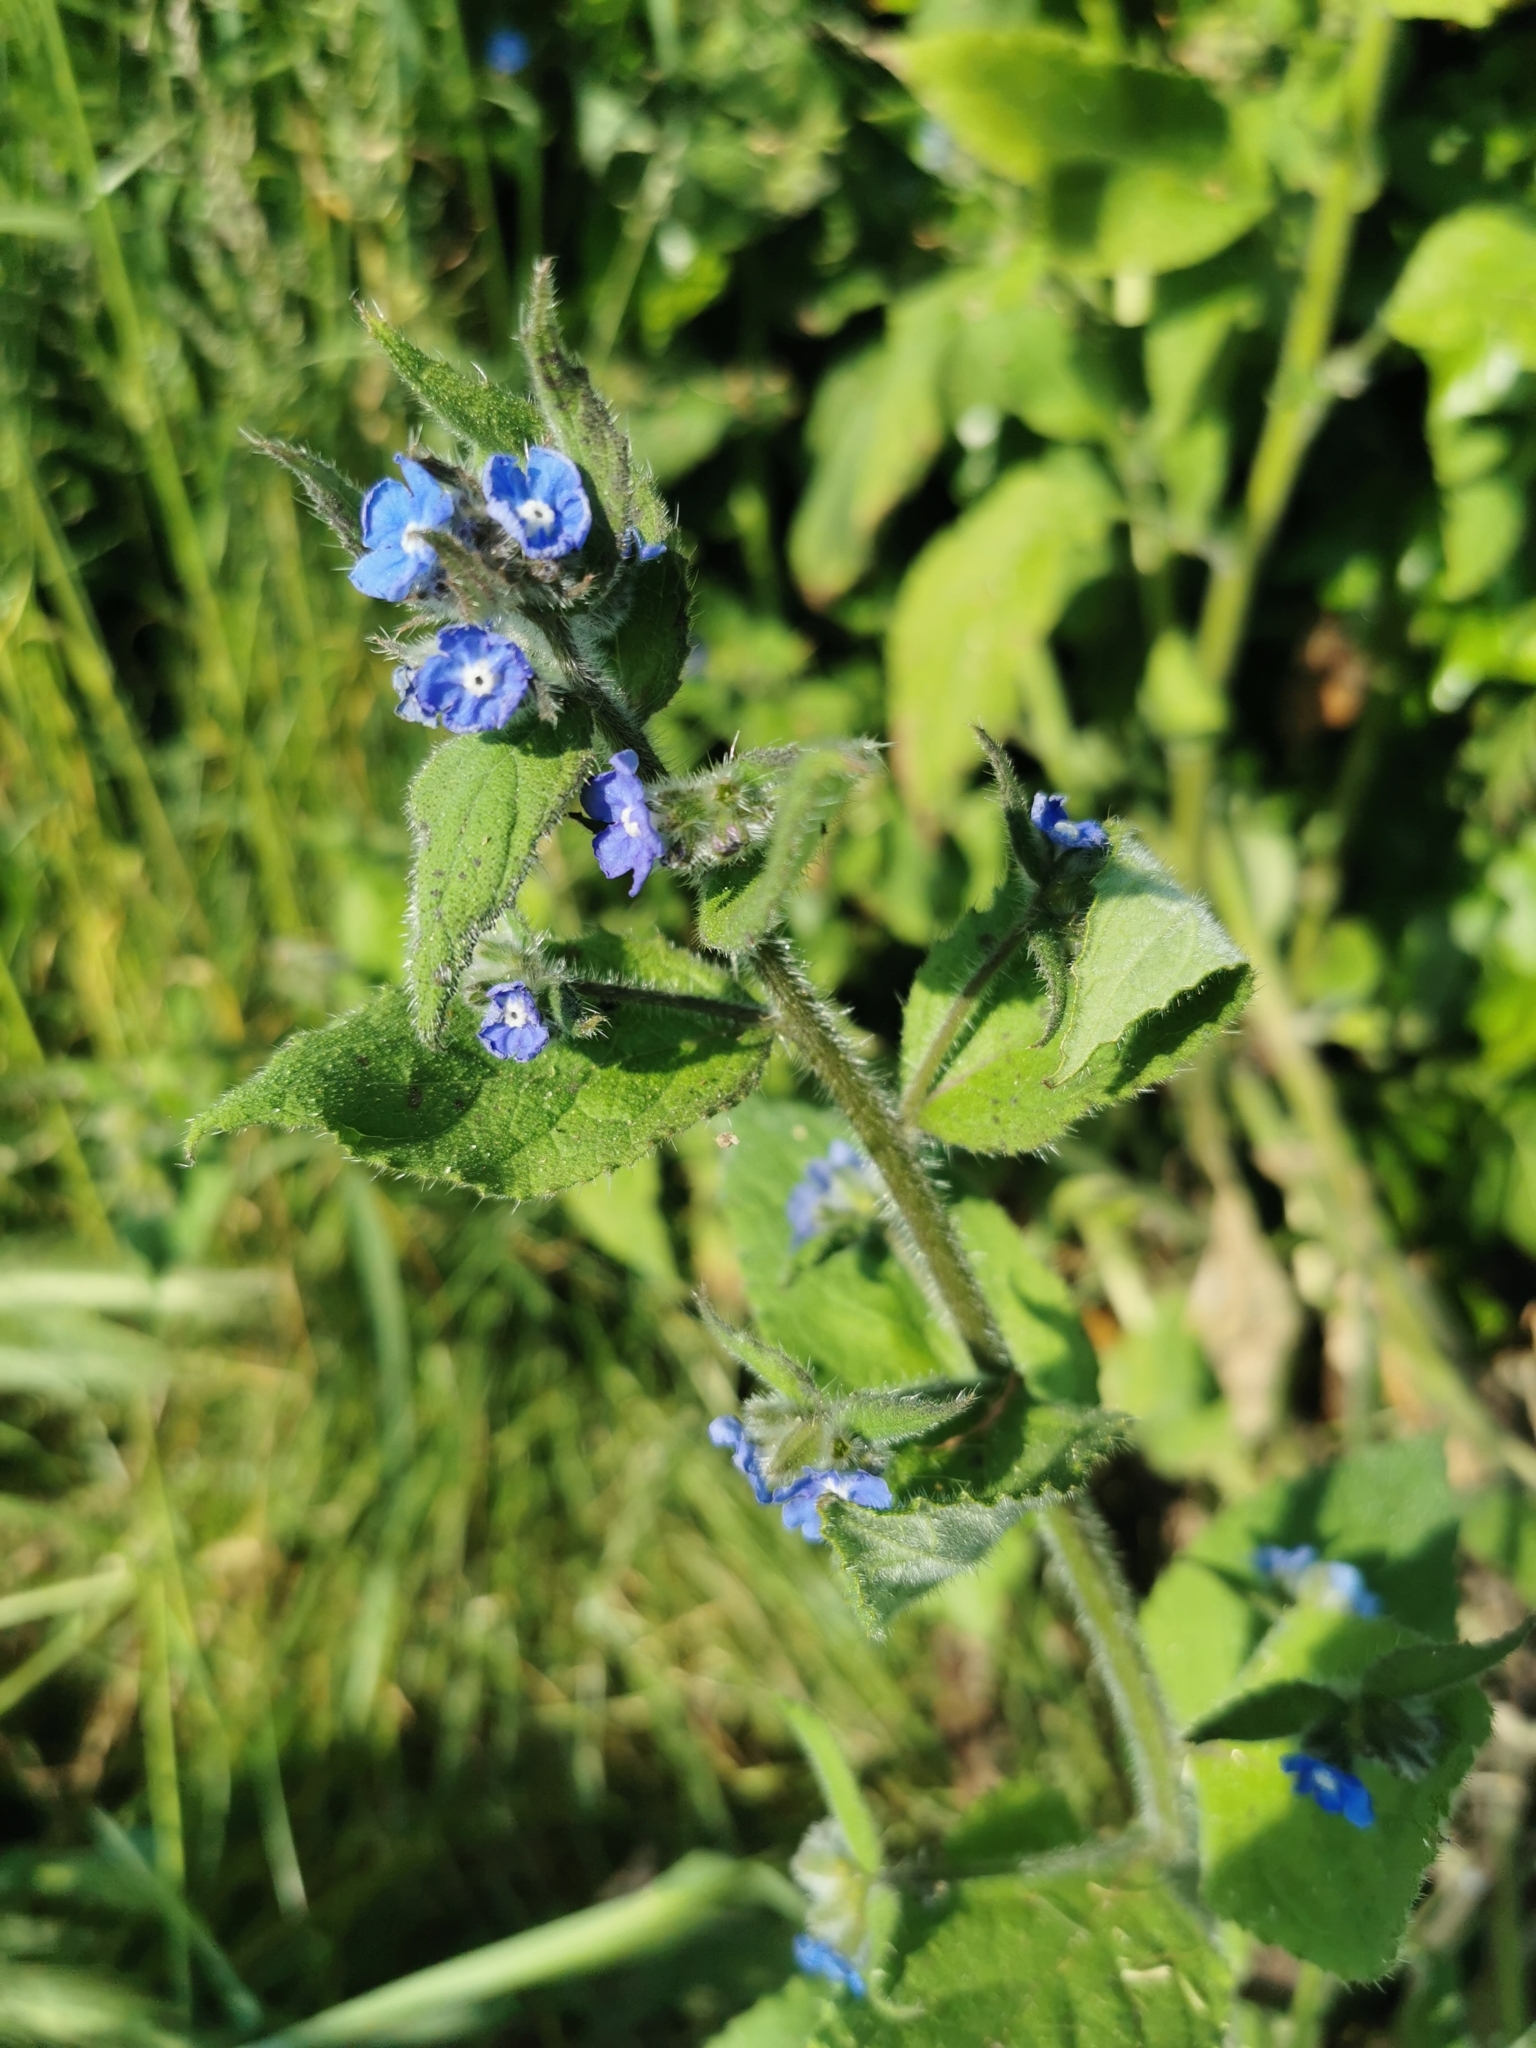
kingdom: Plantae
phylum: Tracheophyta
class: Magnoliopsida
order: Boraginales
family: Boraginaceae
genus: Pentaglottis
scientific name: Pentaglottis sempervirens
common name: Green alkanet
